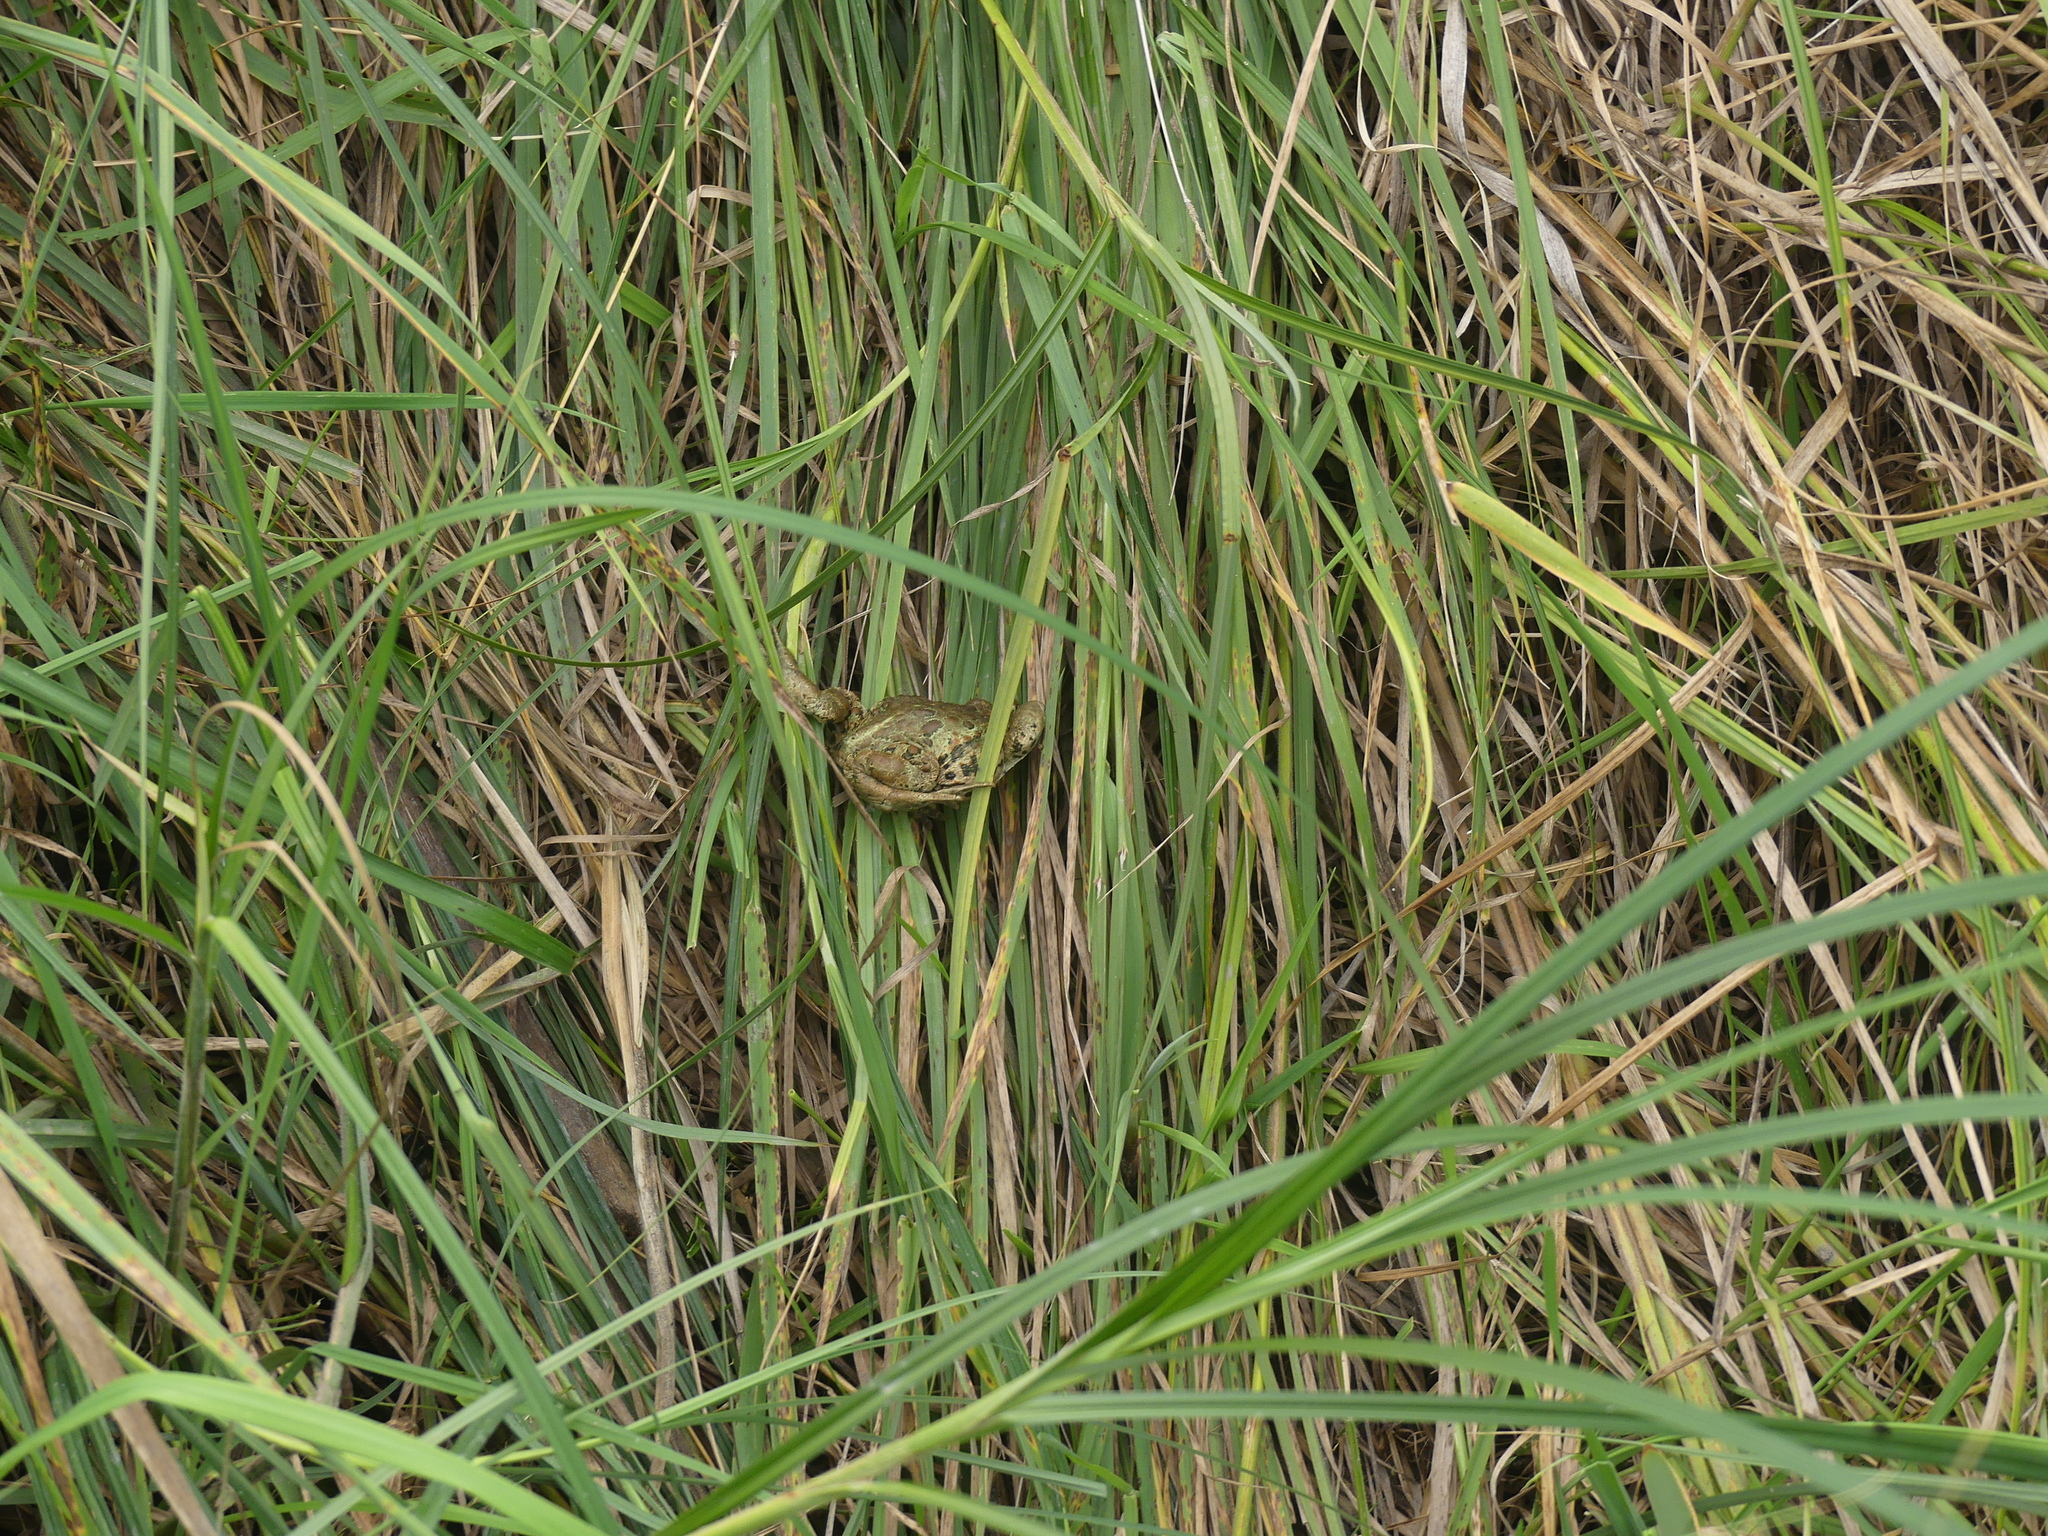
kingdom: Animalia
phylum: Chordata
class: Amphibia
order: Anura
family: Bufonidae
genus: Anaxyrus
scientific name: Anaxyrus boreas
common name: Western toad
